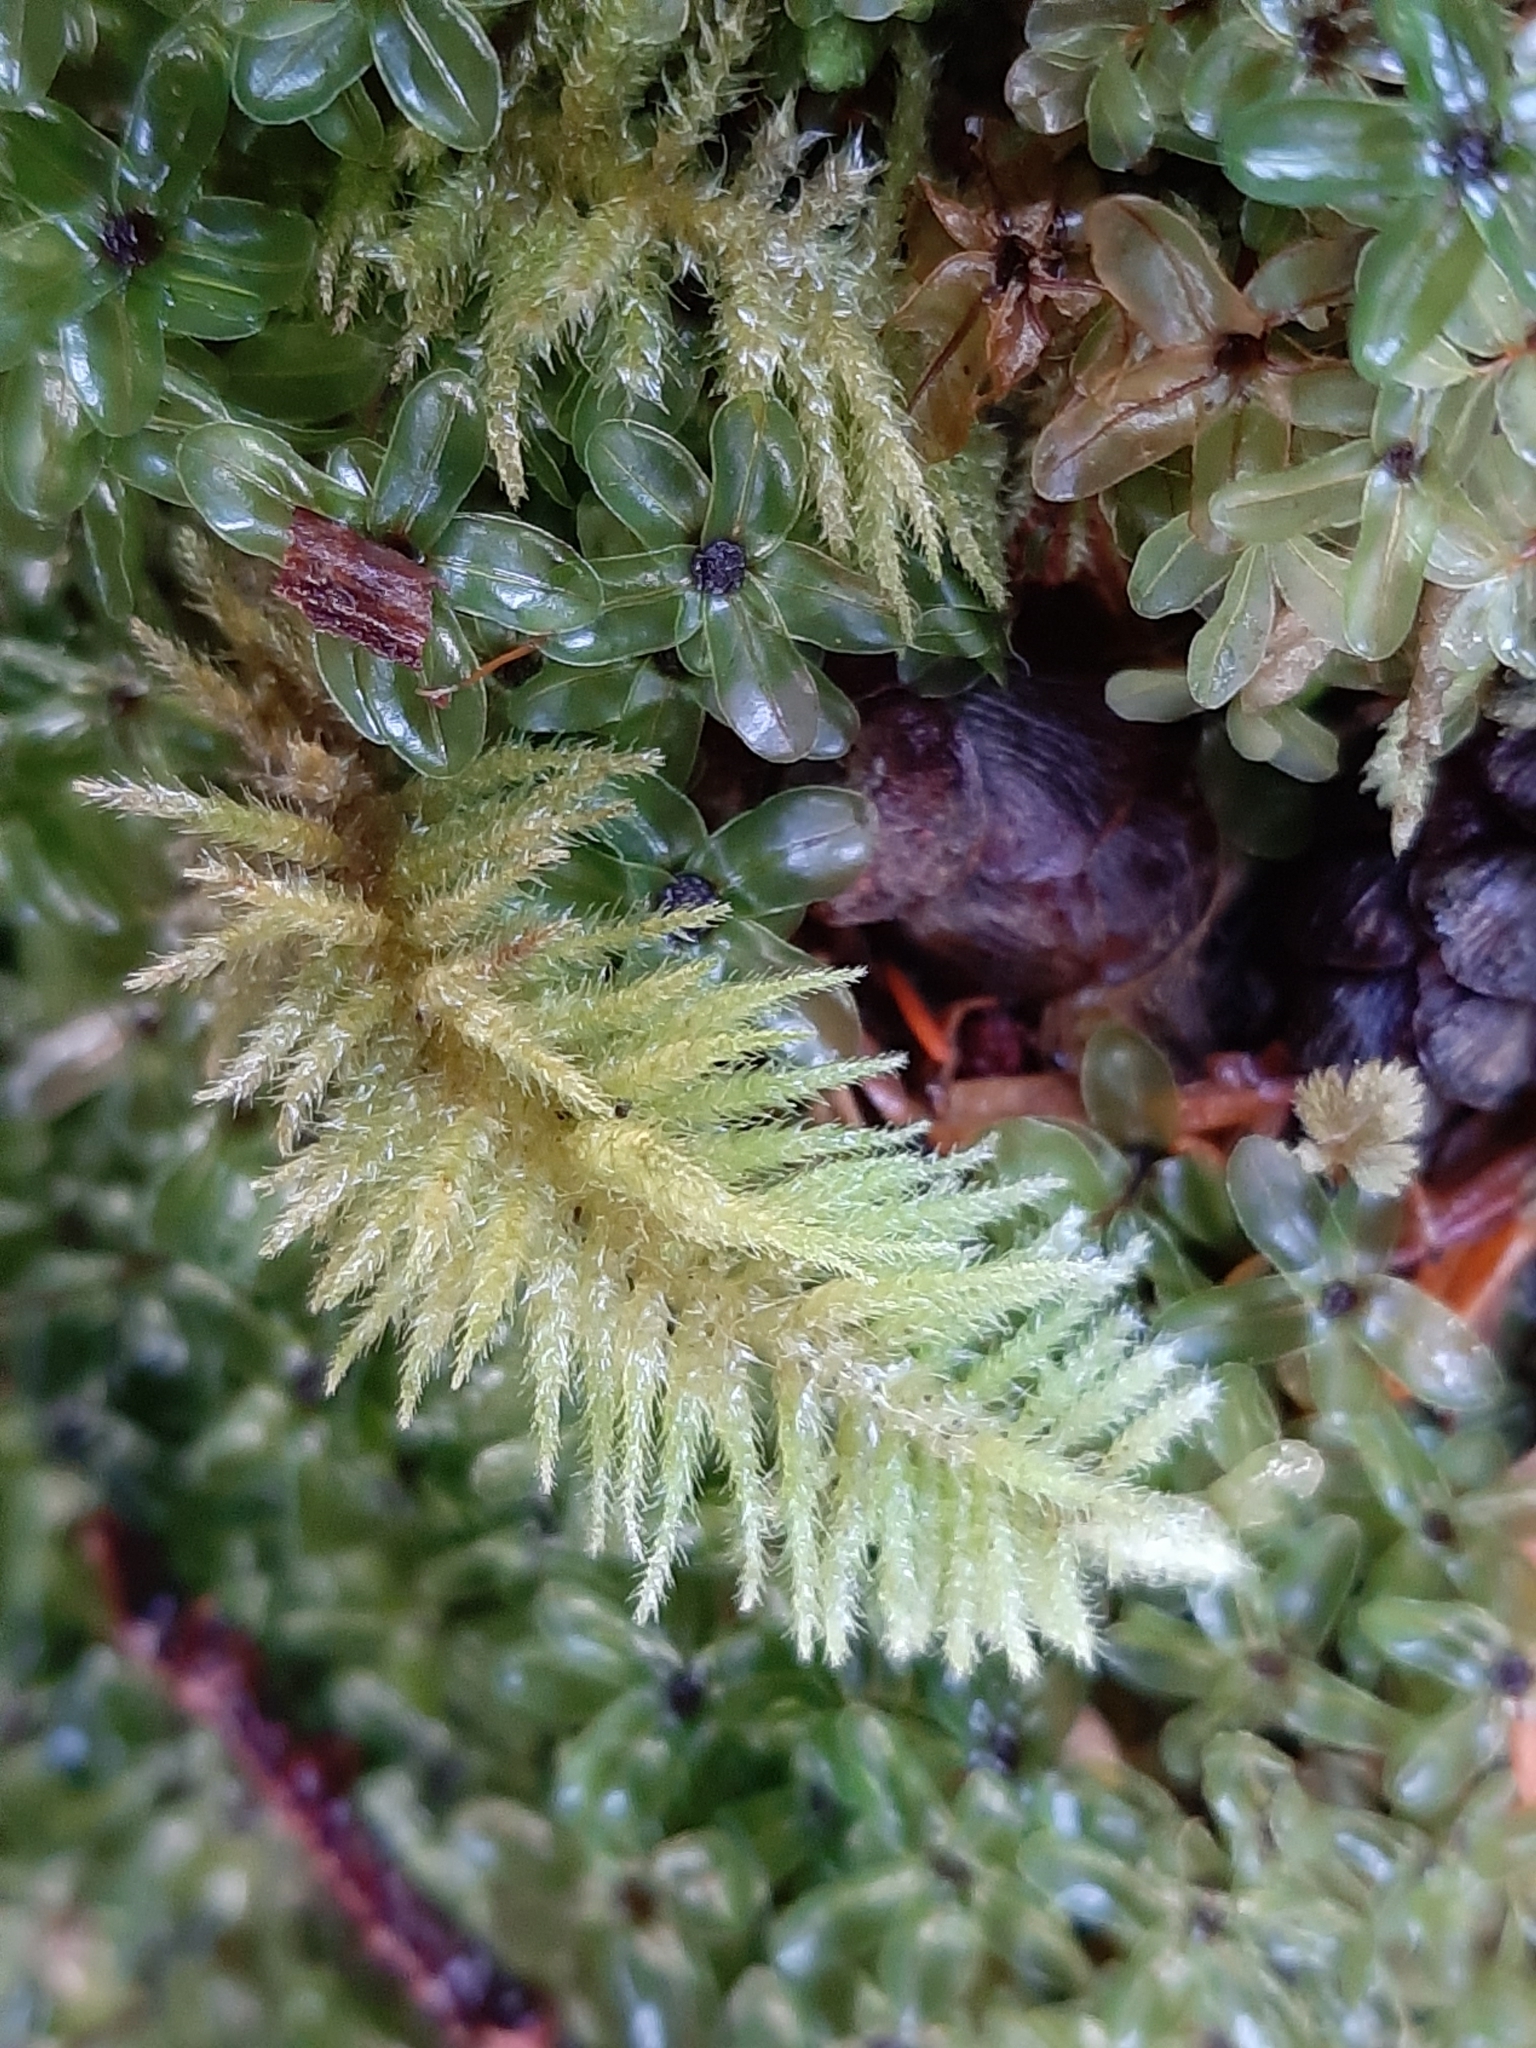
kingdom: Plantae
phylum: Bryophyta
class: Bryopsida
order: Hypnales
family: Brachytheciaceae
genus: Kindbergia
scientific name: Kindbergia oregana
